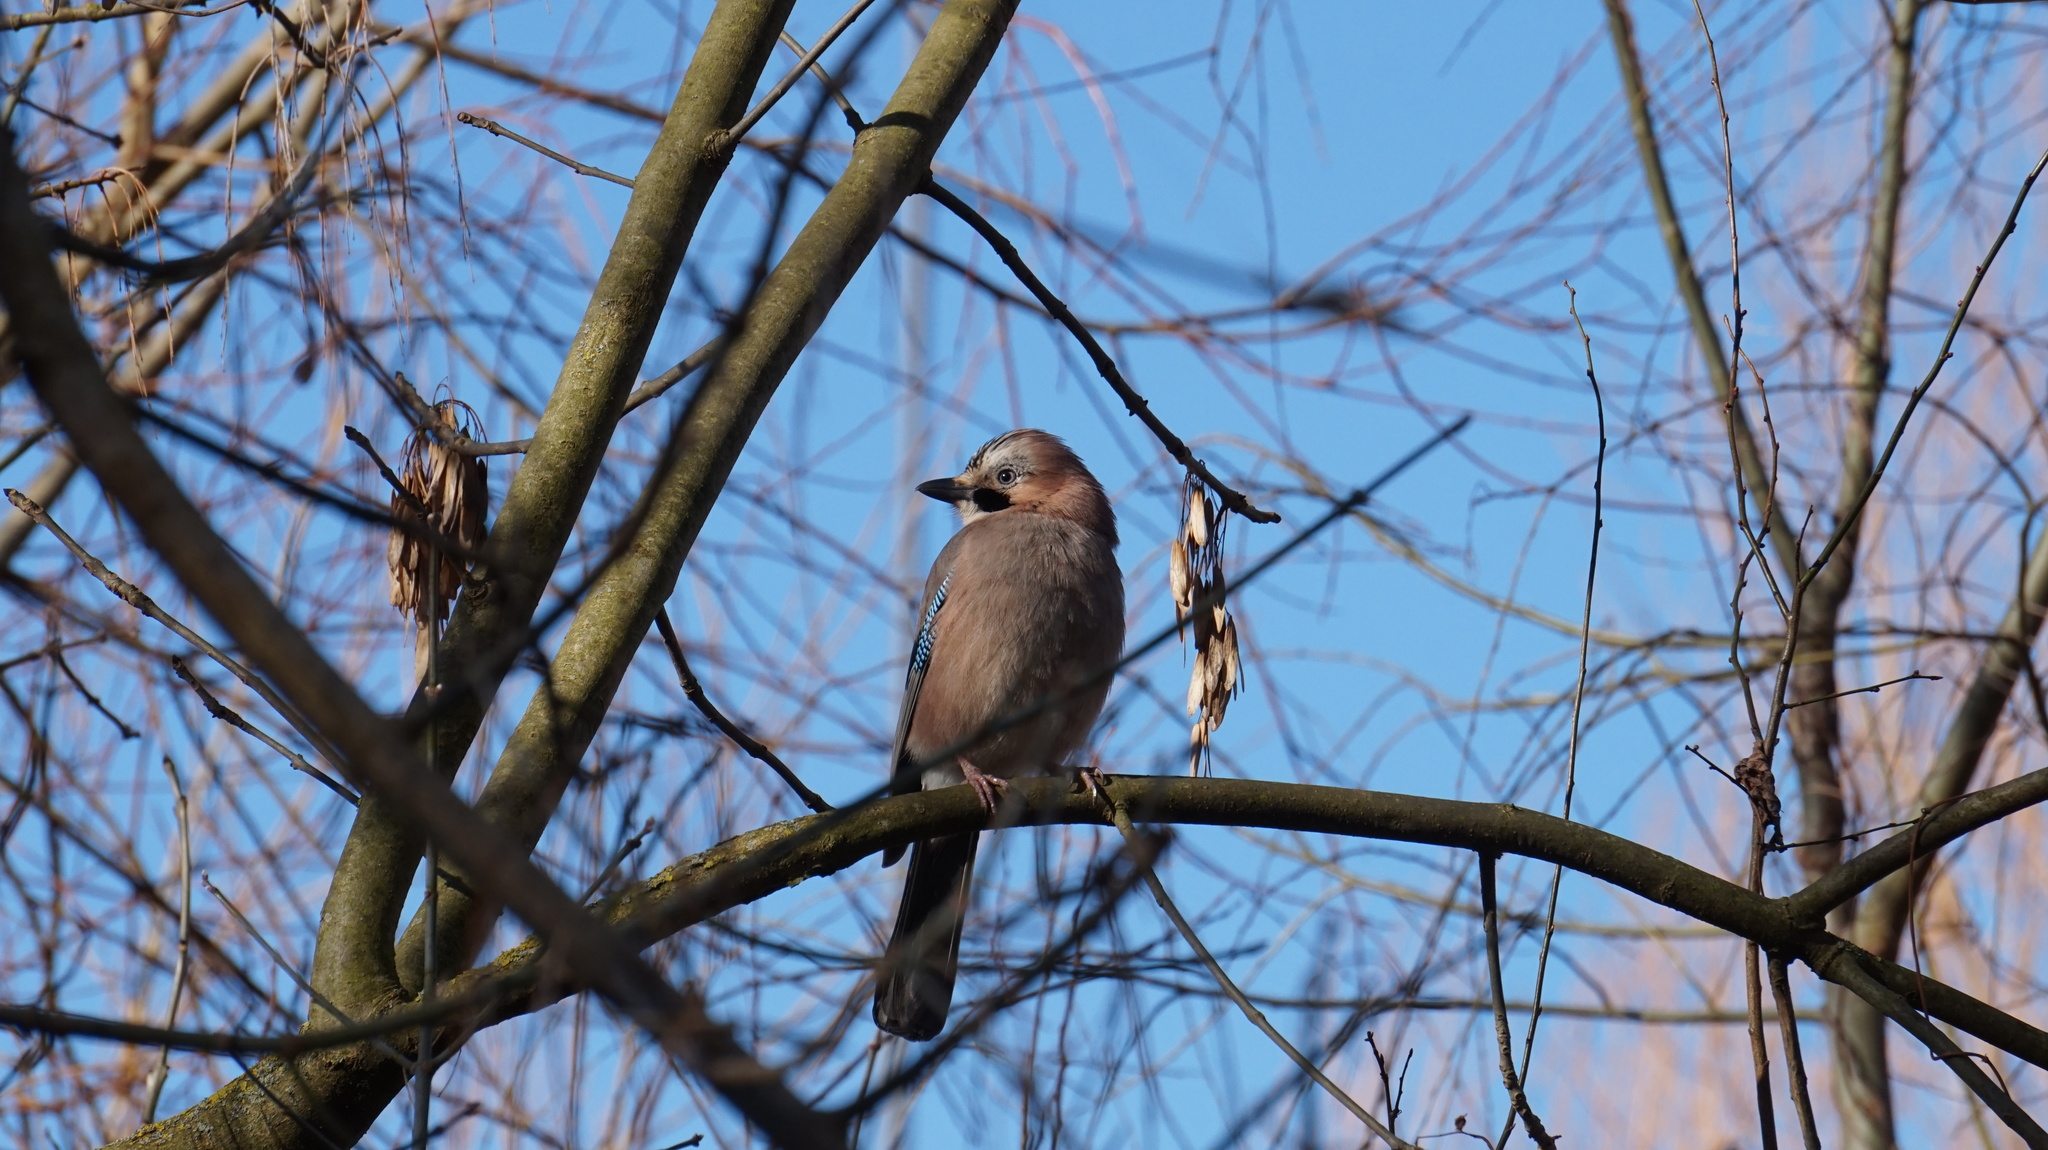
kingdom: Animalia
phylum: Chordata
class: Aves
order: Passeriformes
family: Corvidae
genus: Garrulus
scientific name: Garrulus glandarius
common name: Eurasian jay
